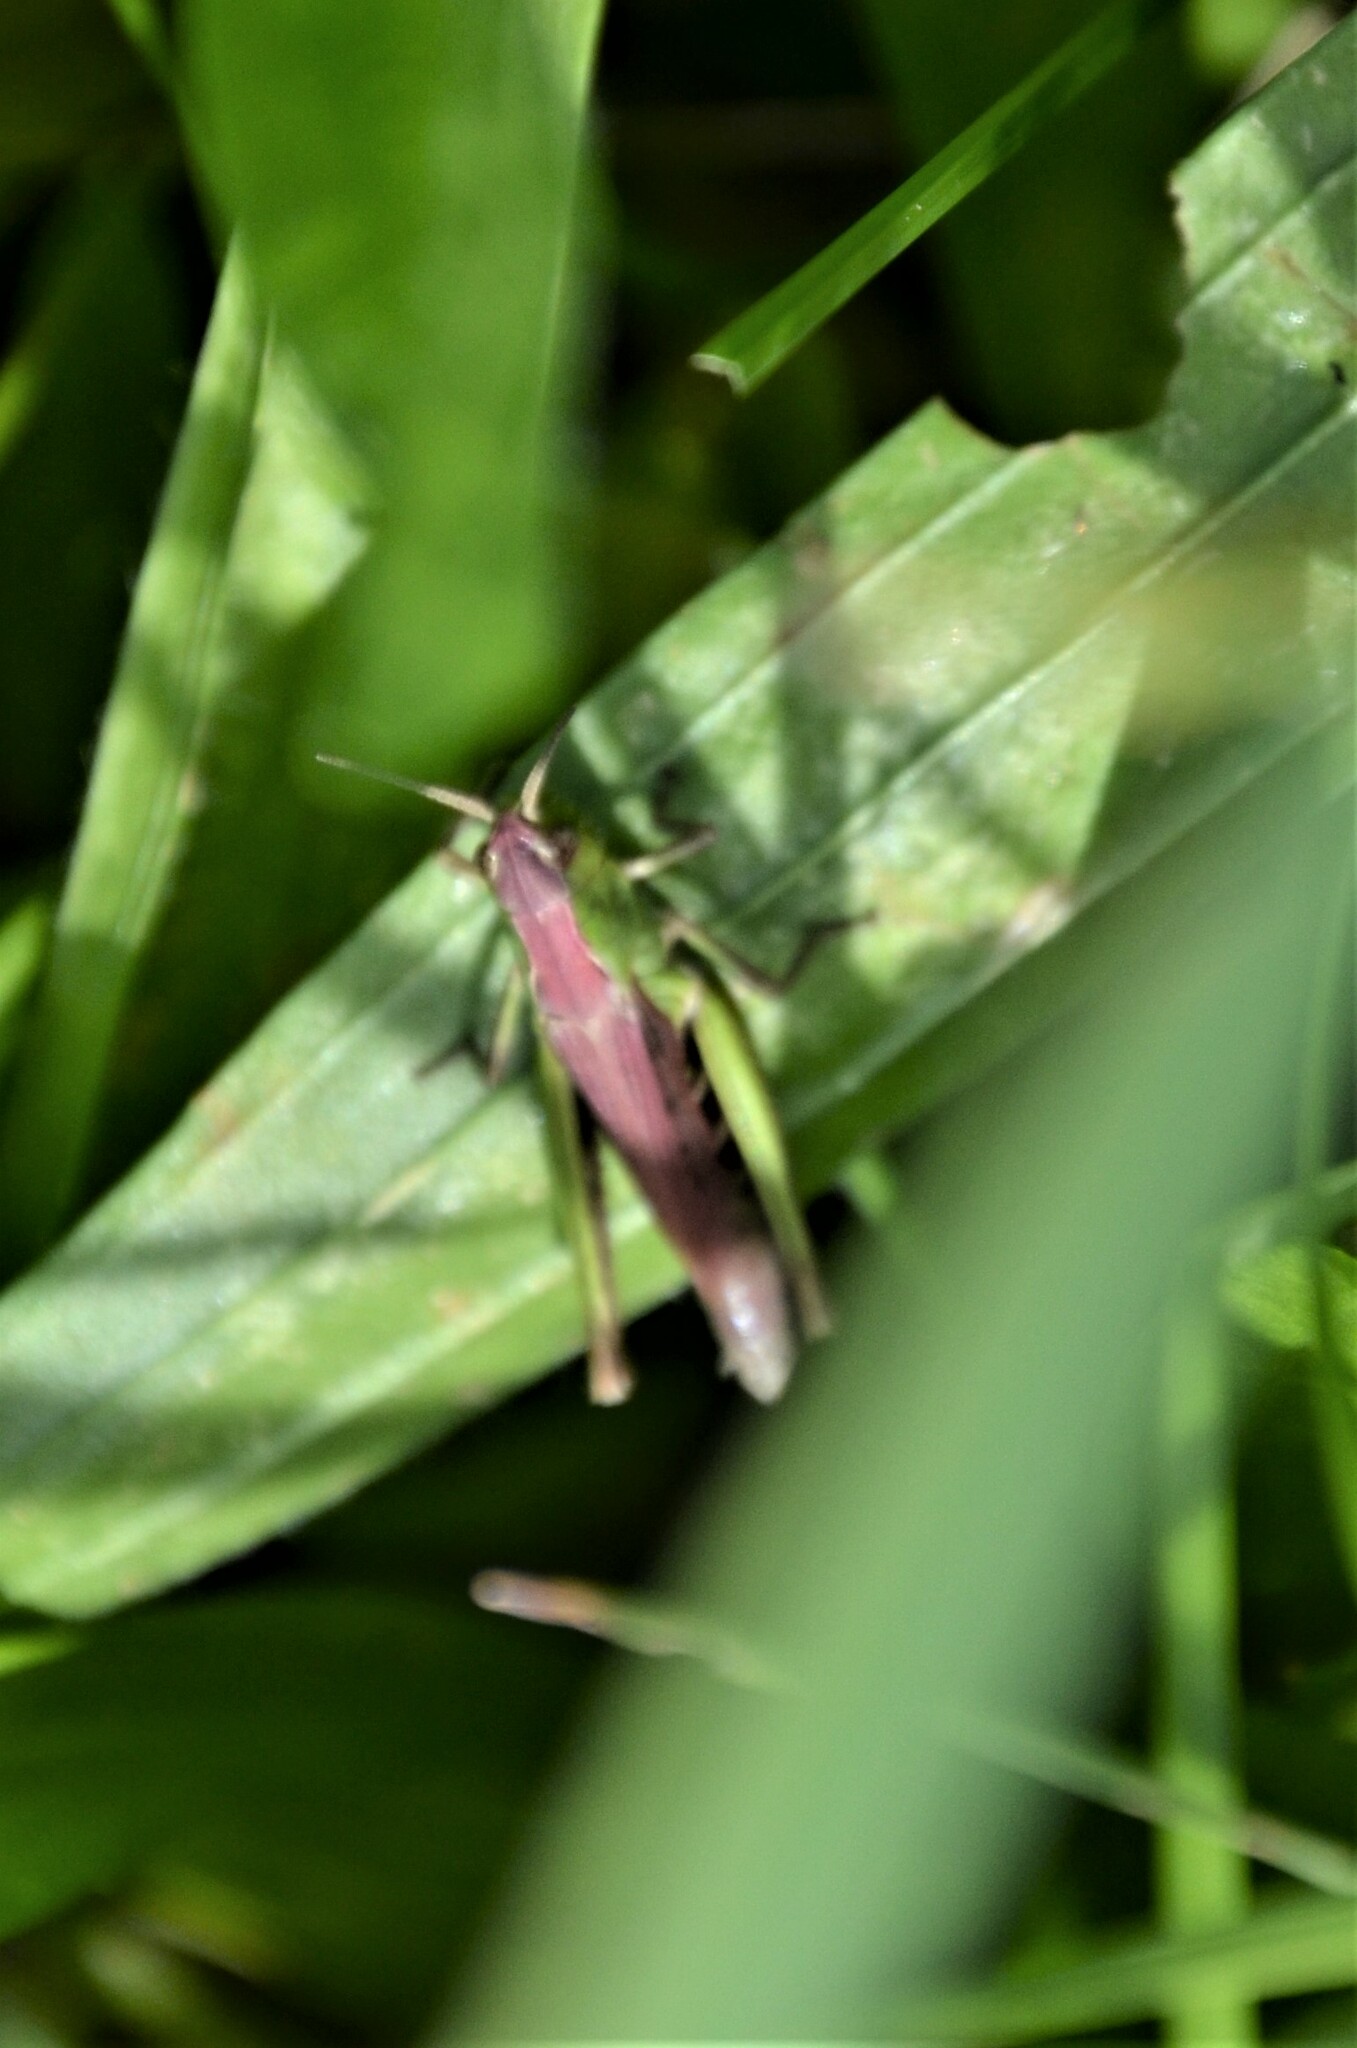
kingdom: Animalia
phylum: Arthropoda
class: Insecta
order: Orthoptera
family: Acrididae
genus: Chorthippus
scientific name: Chorthippus dorsatus
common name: Steppe grasshopper
